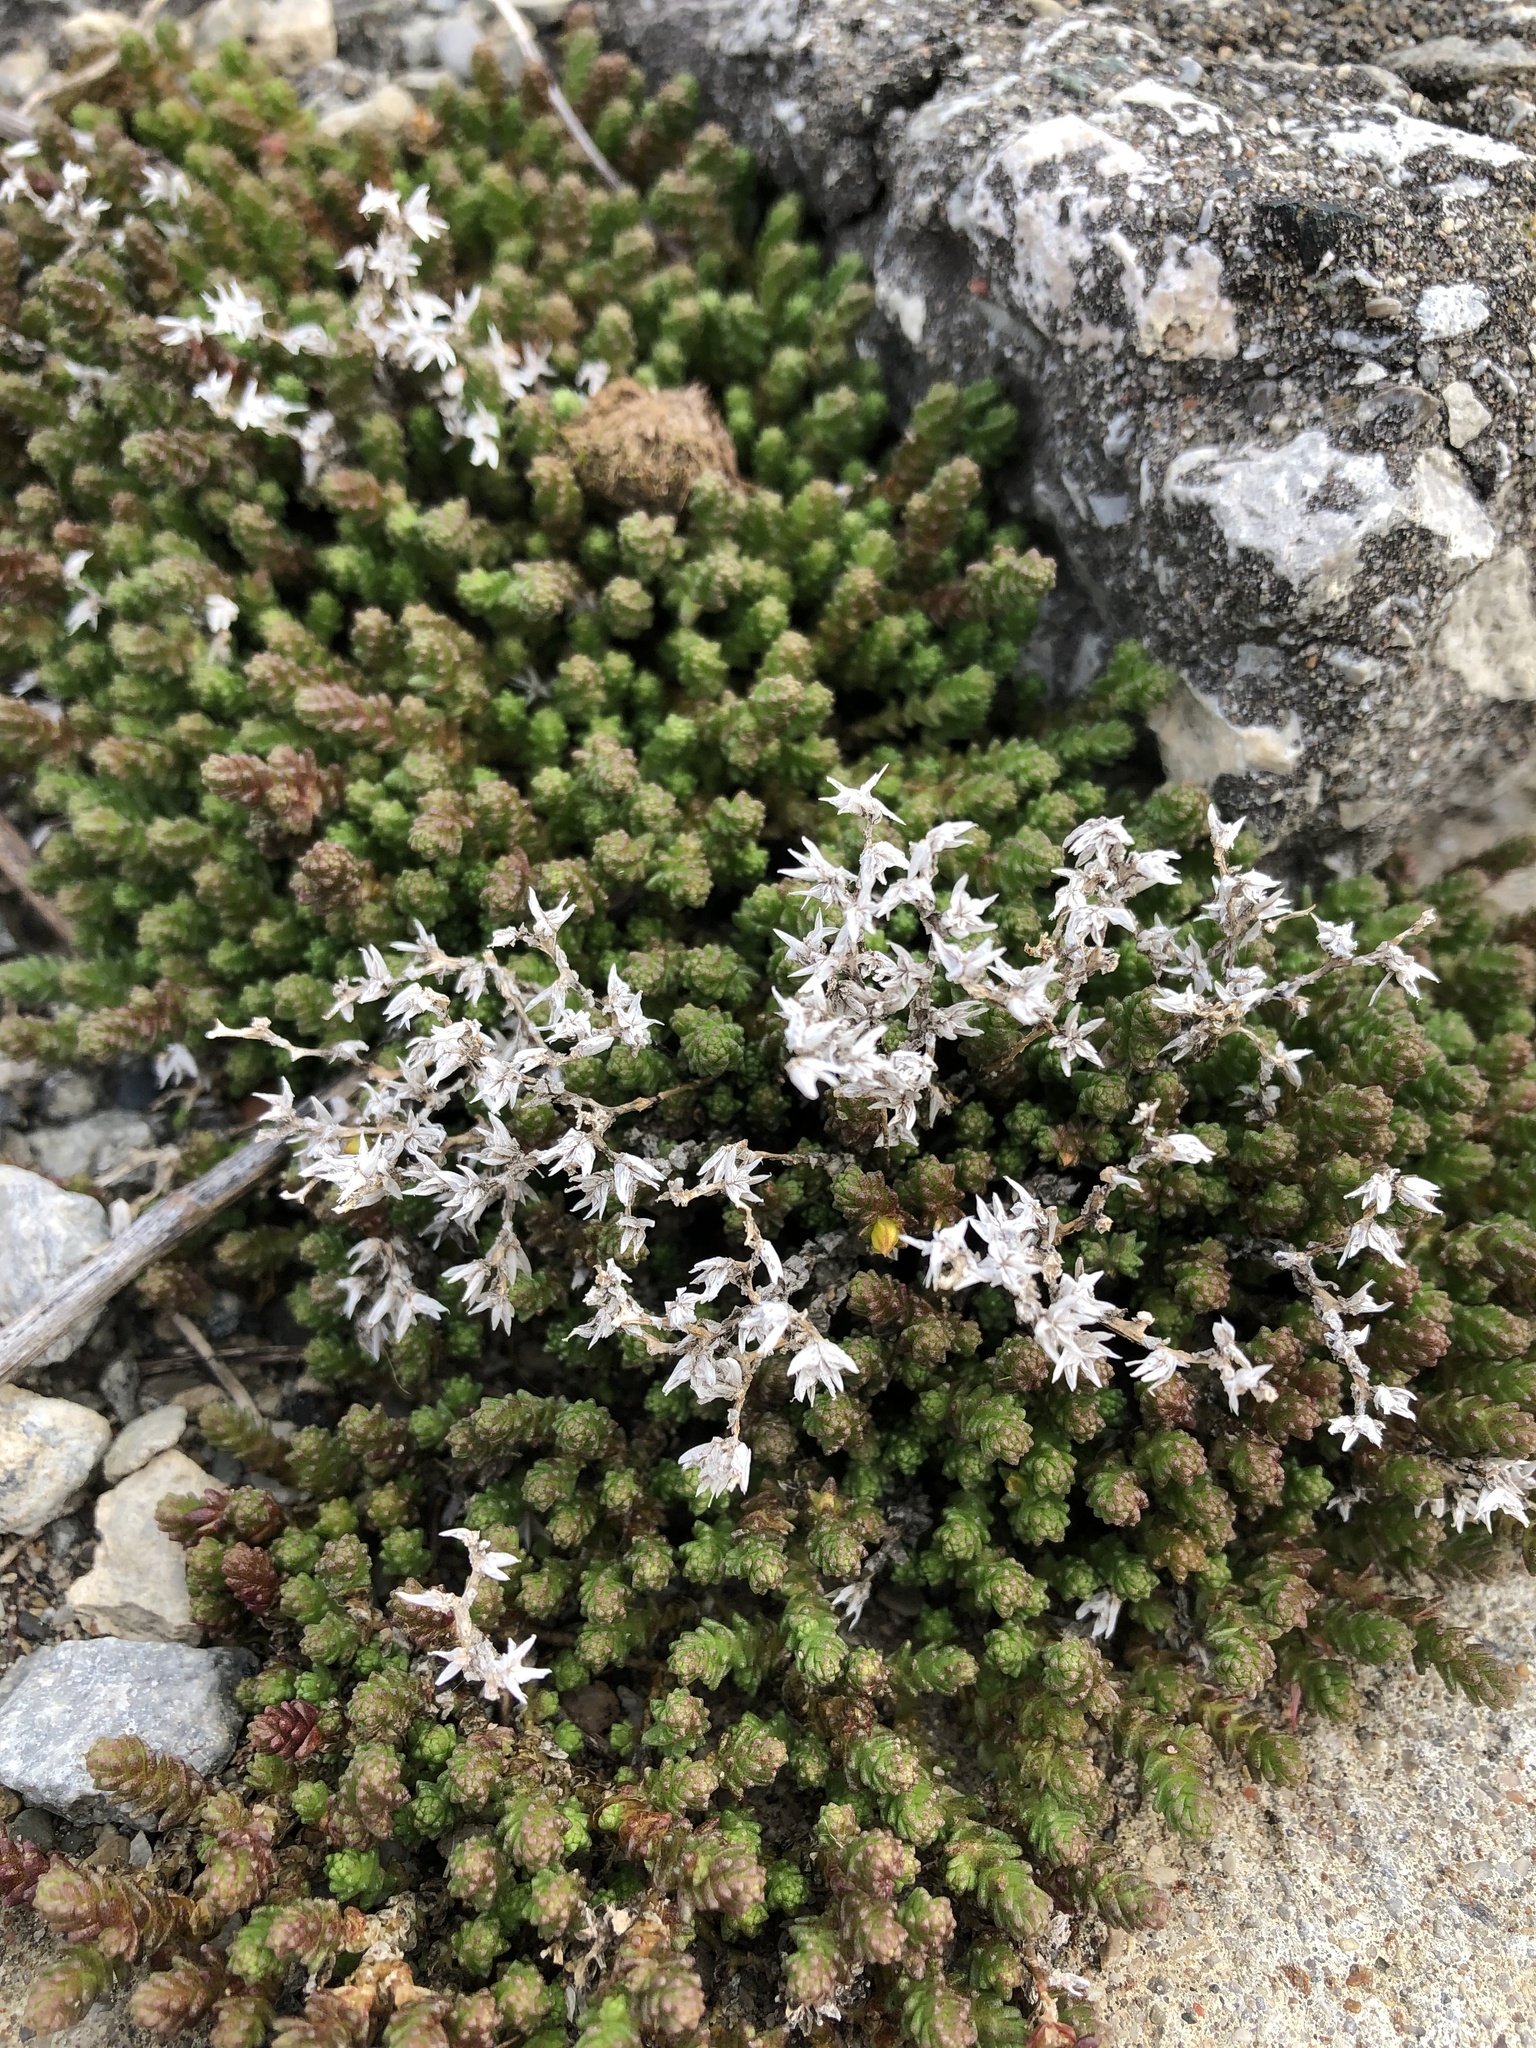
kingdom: Plantae
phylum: Tracheophyta
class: Magnoliopsida
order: Saxifragales
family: Crassulaceae
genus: Sedum
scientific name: Sedum acre
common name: Biting stonecrop
